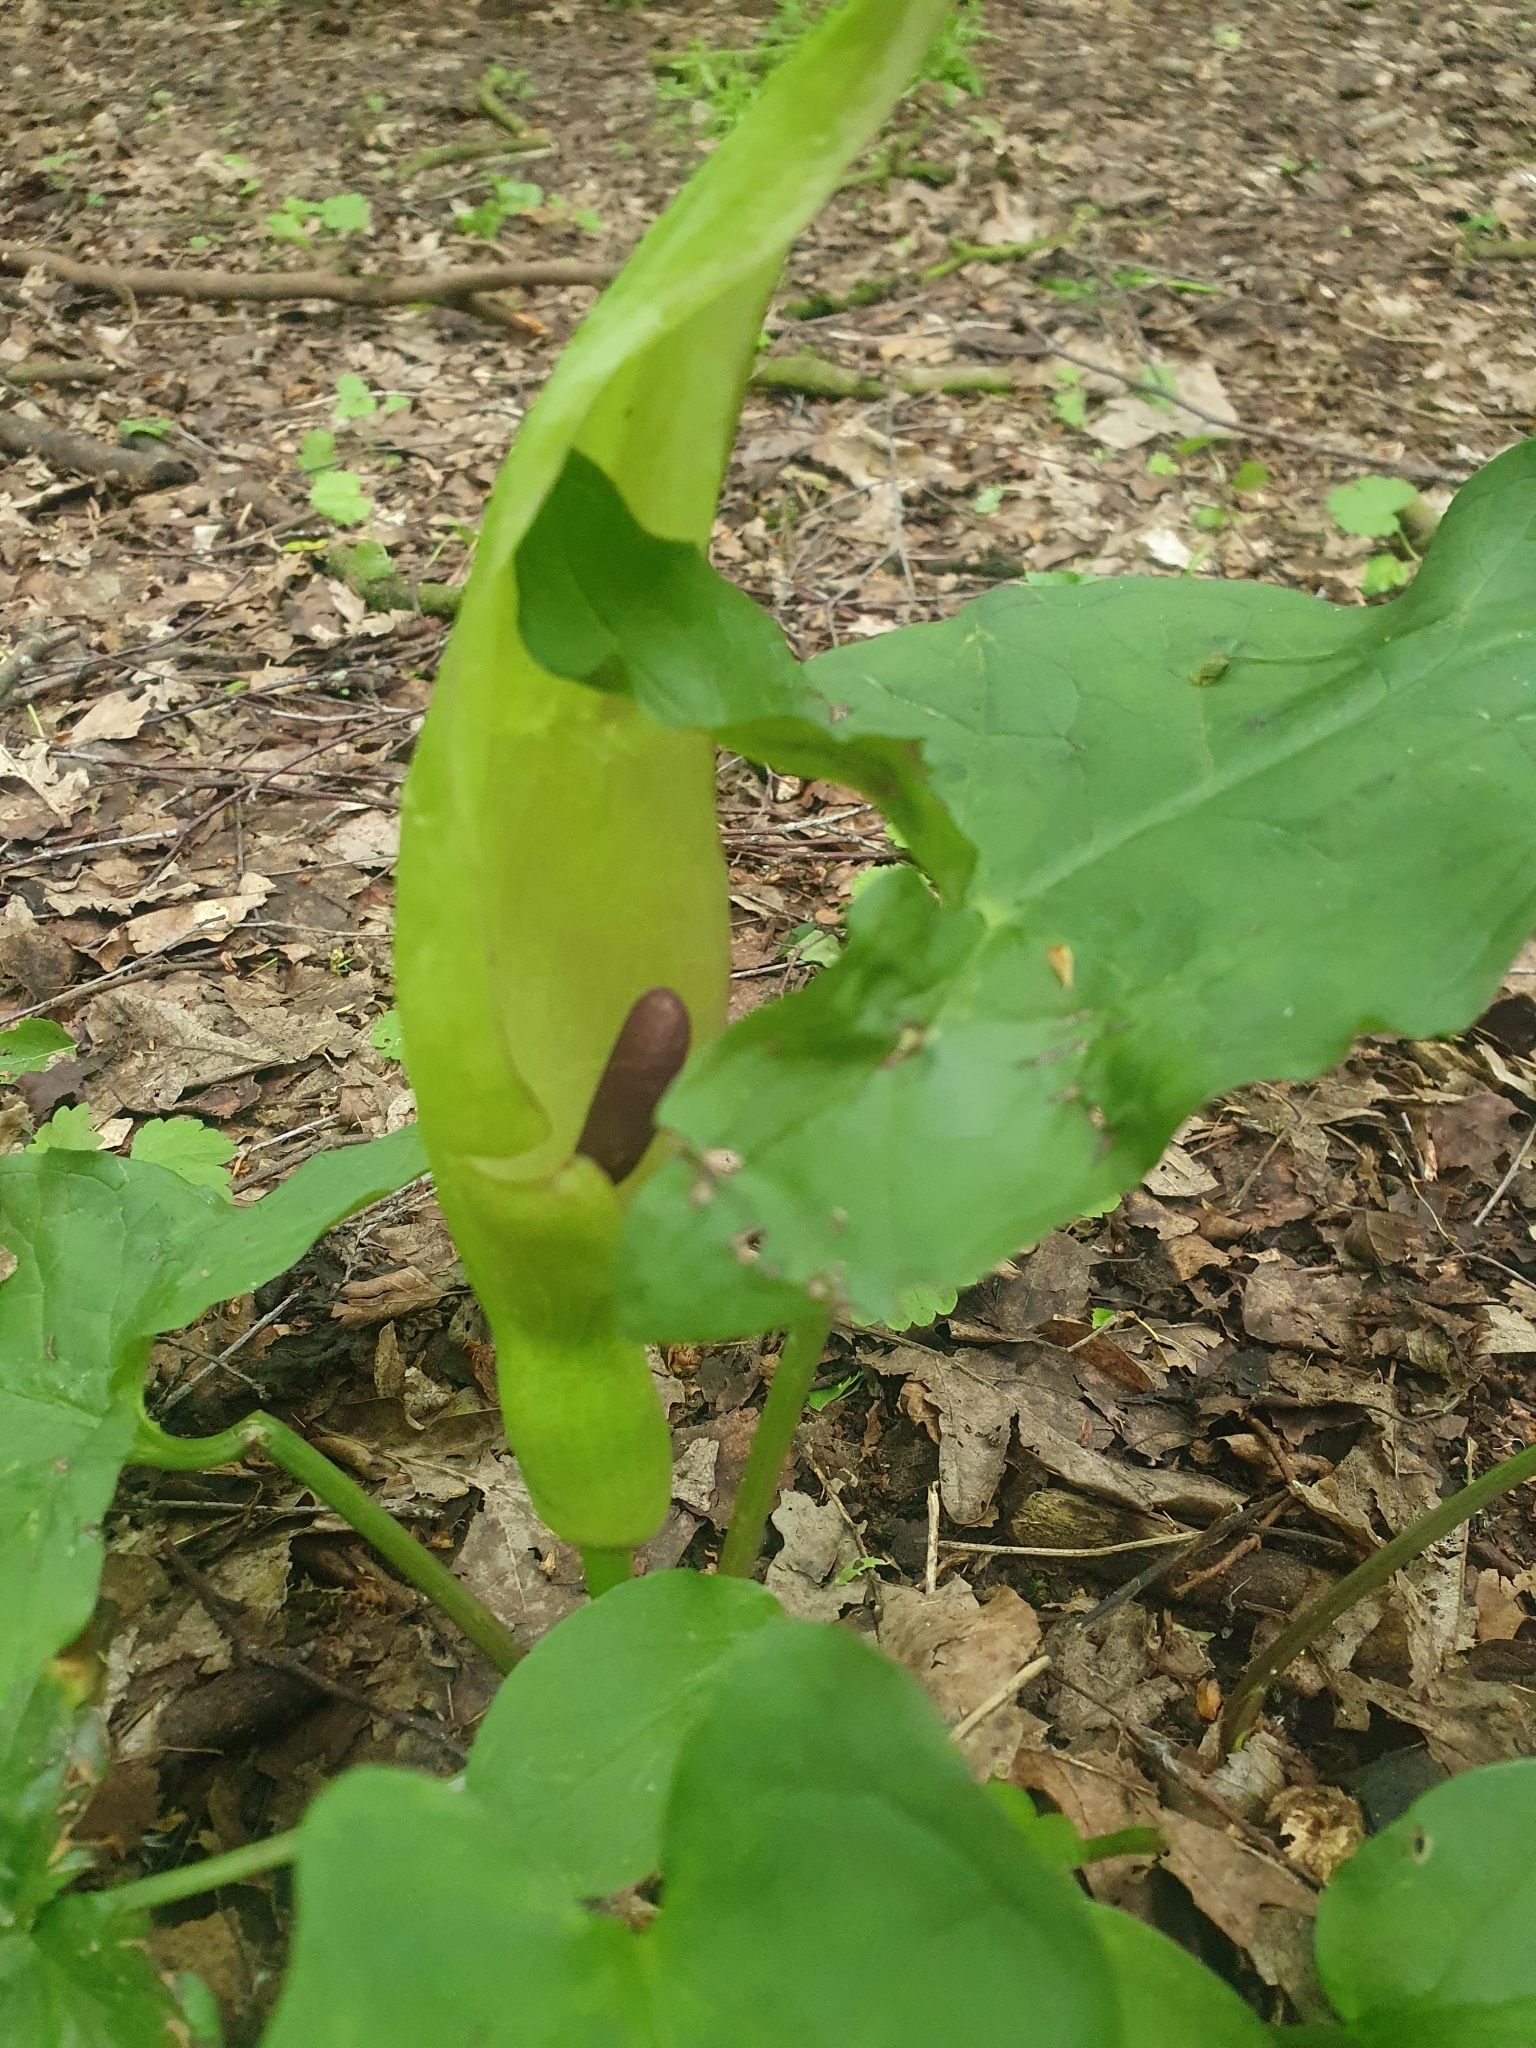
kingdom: Plantae
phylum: Tracheophyta
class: Liliopsida
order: Alismatales
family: Araceae
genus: Arum
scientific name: Arum maculatum
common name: Lords-and-ladies
